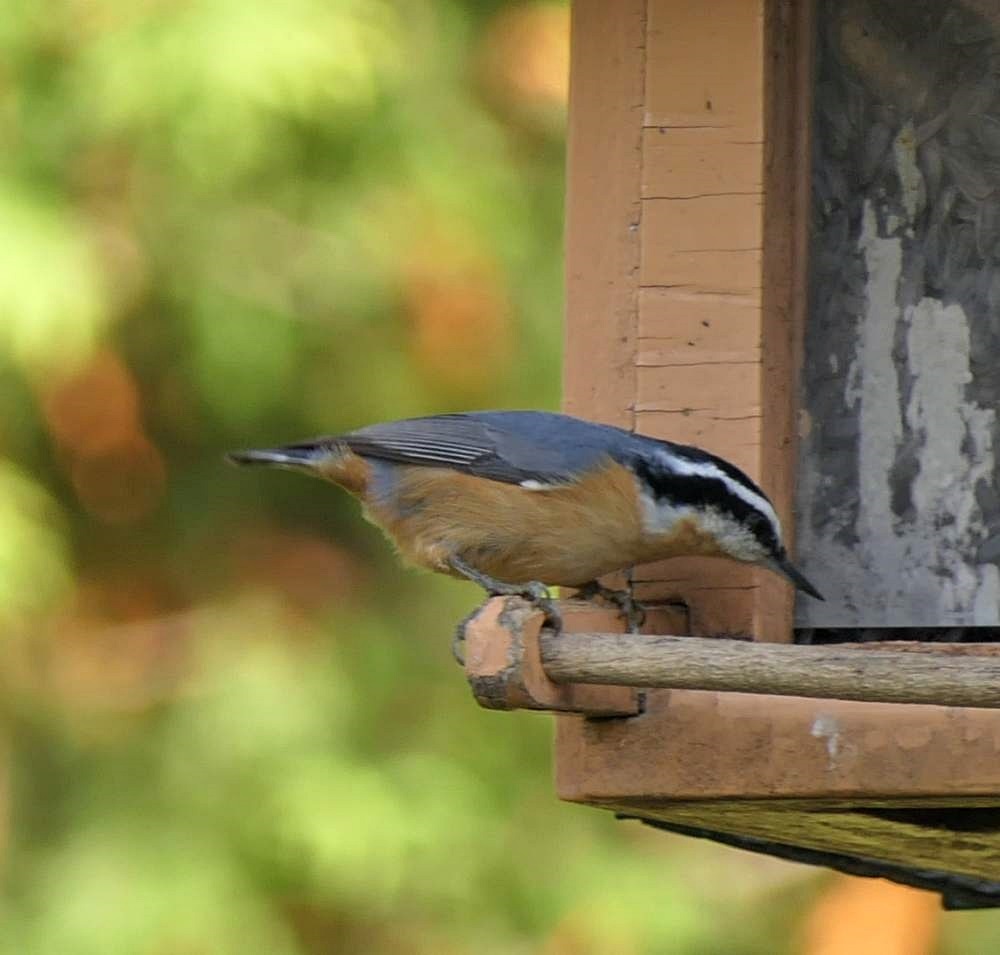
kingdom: Animalia
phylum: Chordata
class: Aves
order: Passeriformes
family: Sittidae
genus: Sitta
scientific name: Sitta canadensis
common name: Red-breasted nuthatch
